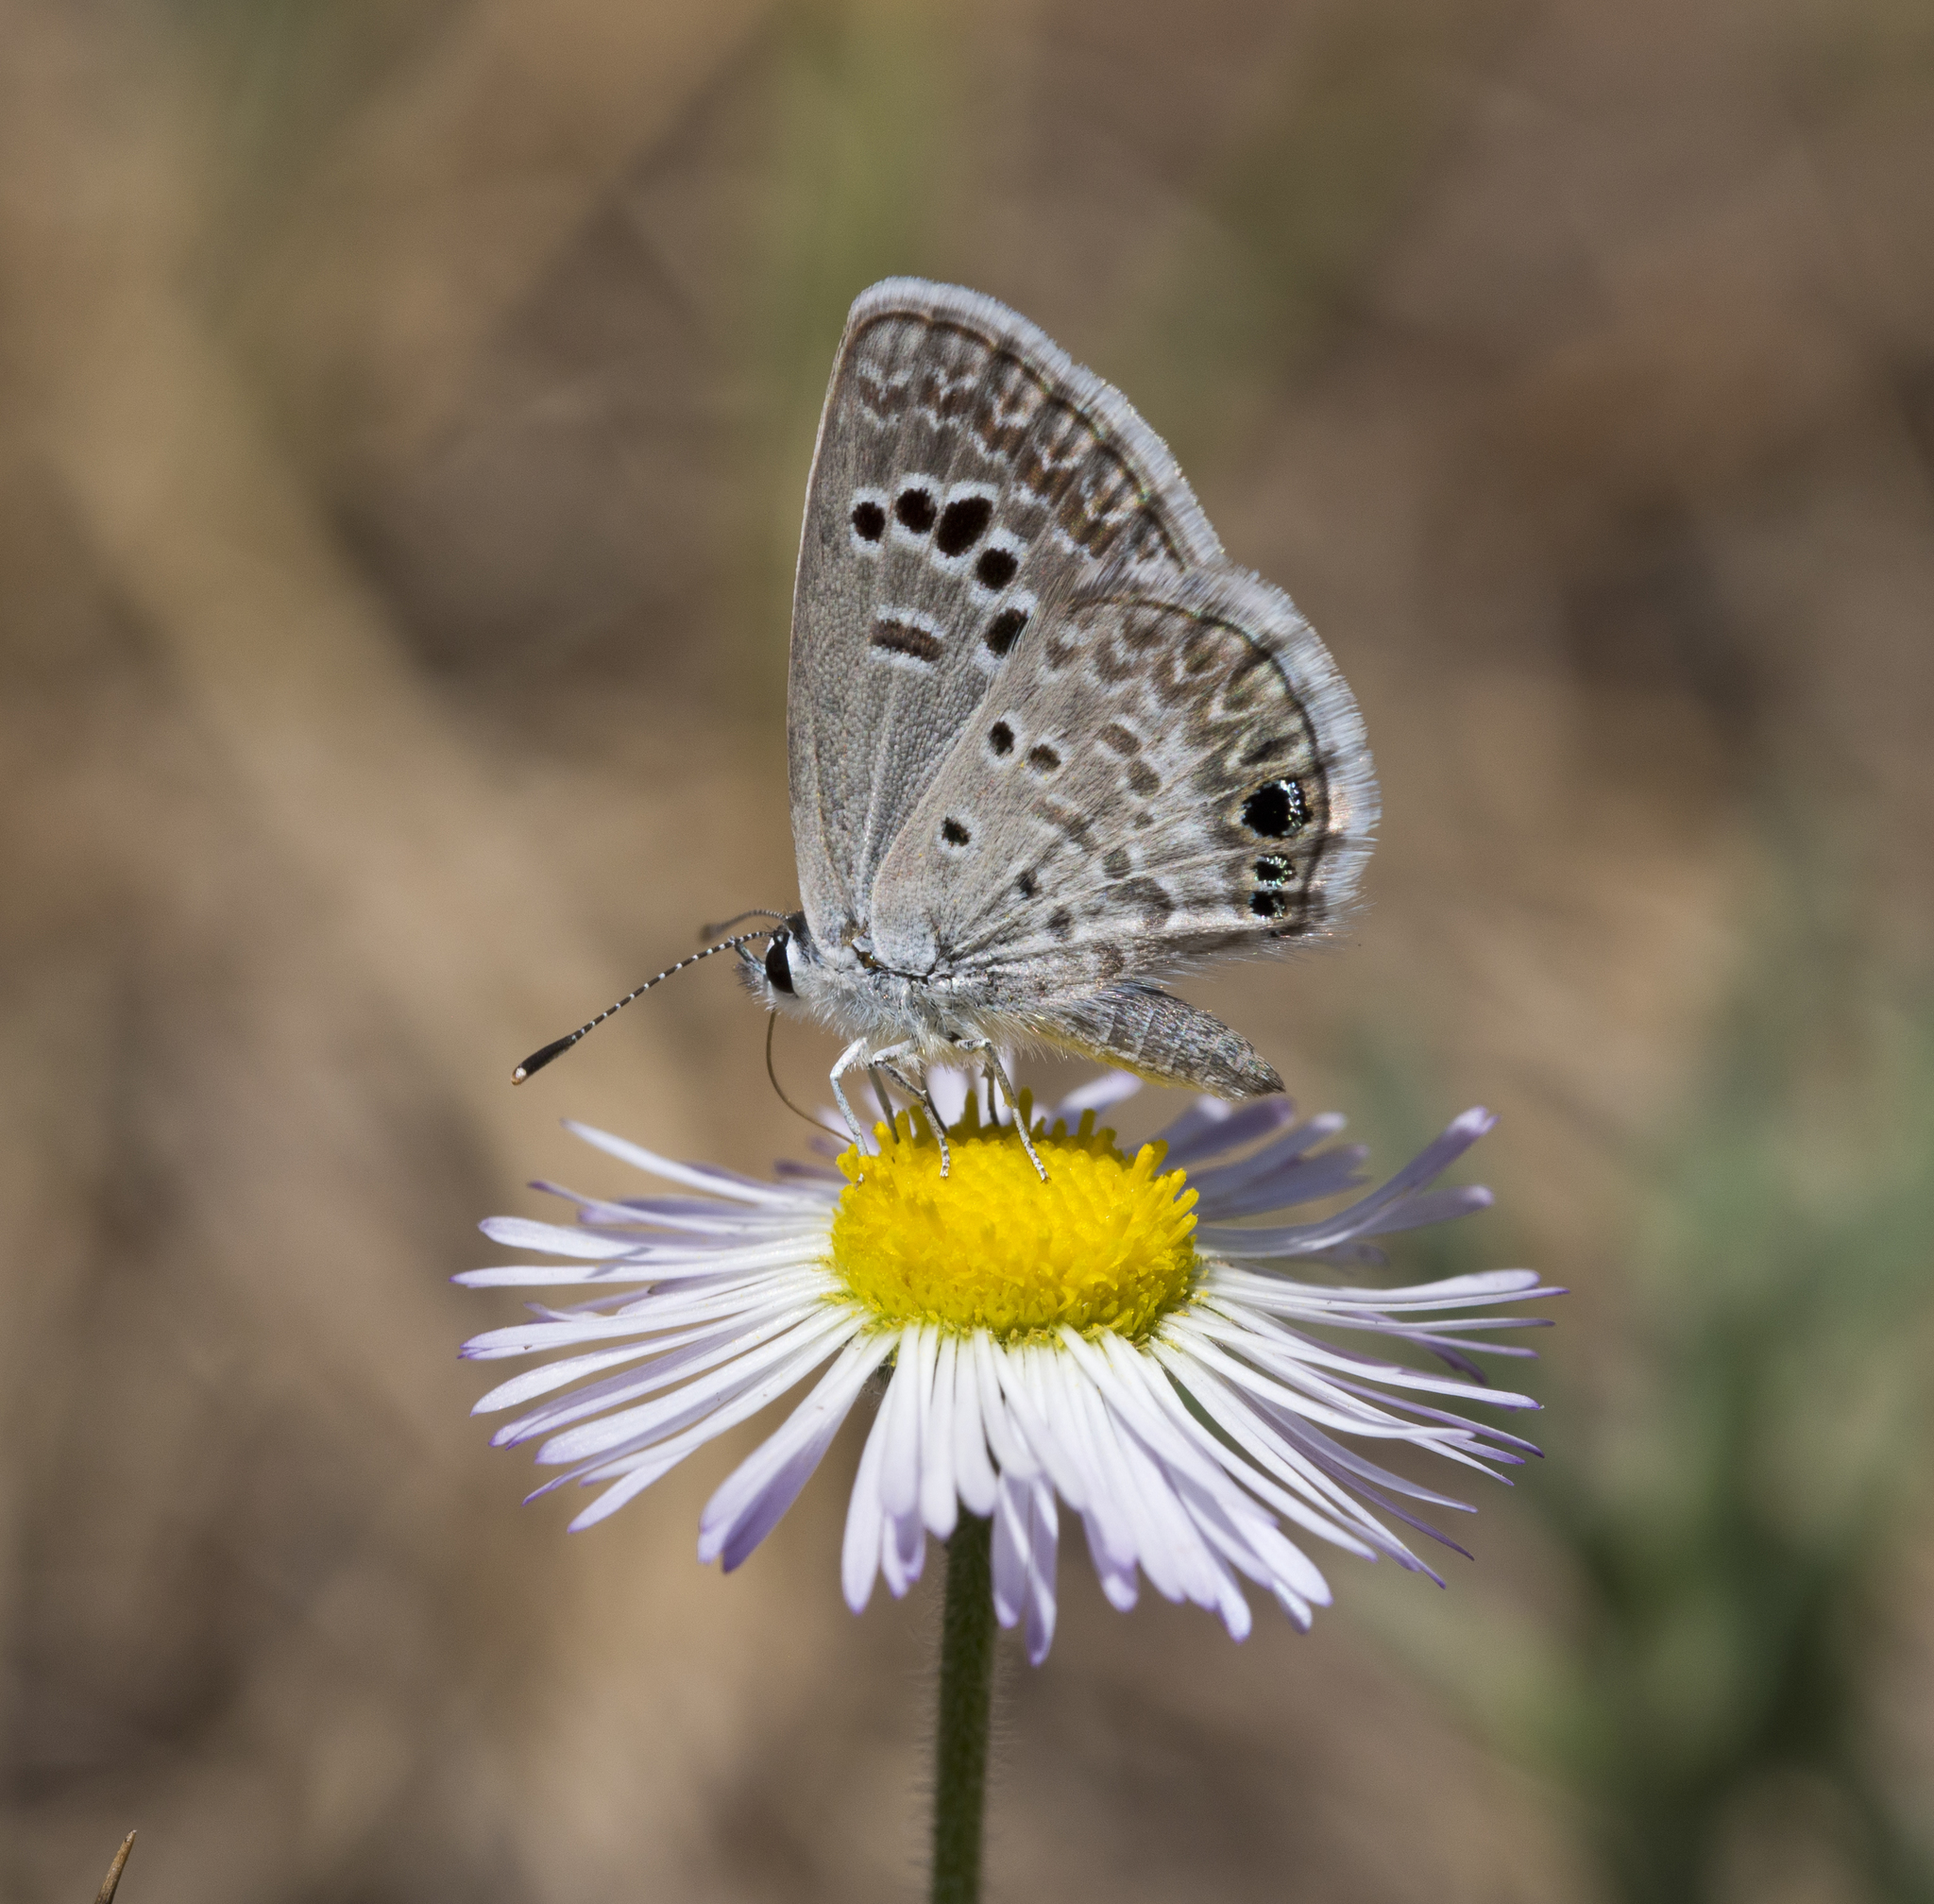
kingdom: Animalia
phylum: Arthropoda
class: Insecta
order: Lepidoptera
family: Lycaenidae
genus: Echinargus
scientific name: Echinargus isola
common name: Reakirt's blue
